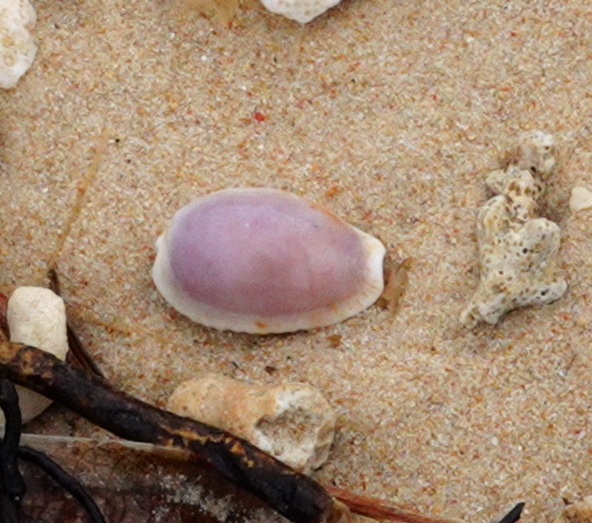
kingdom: Animalia
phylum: Mollusca
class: Gastropoda
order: Littorinimorpha
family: Cypraeidae
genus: Naria
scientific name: Naria erosa
